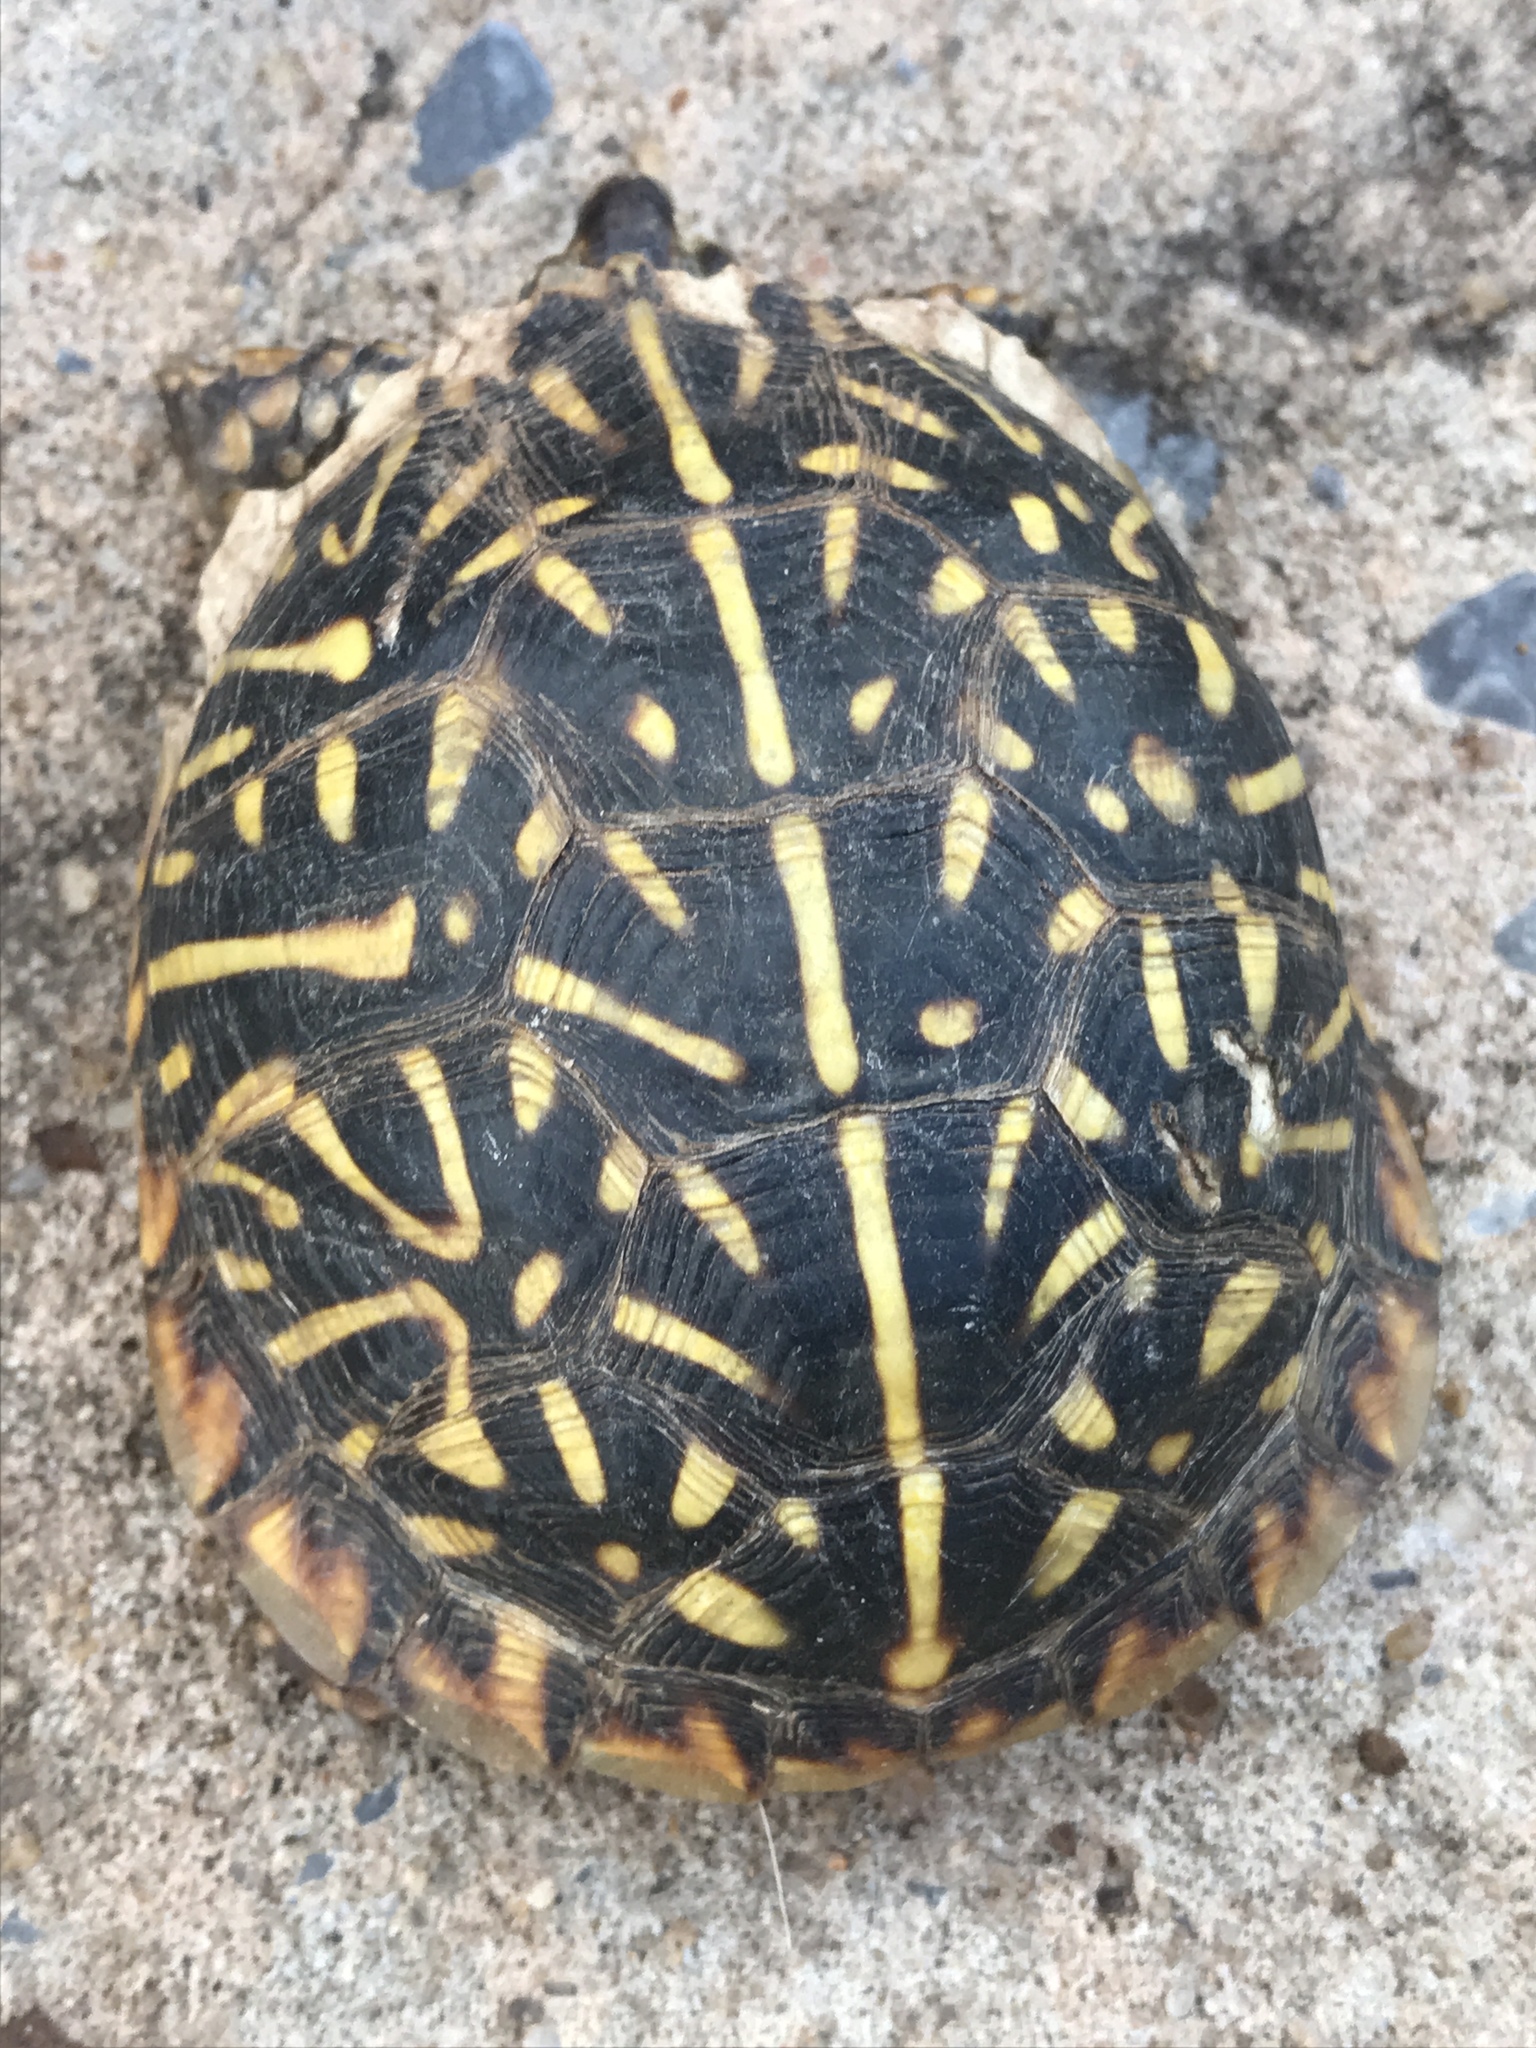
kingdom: Animalia
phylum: Chordata
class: Testudines
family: Emydidae
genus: Terrapene
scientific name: Terrapene ornata
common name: Western box turtle
